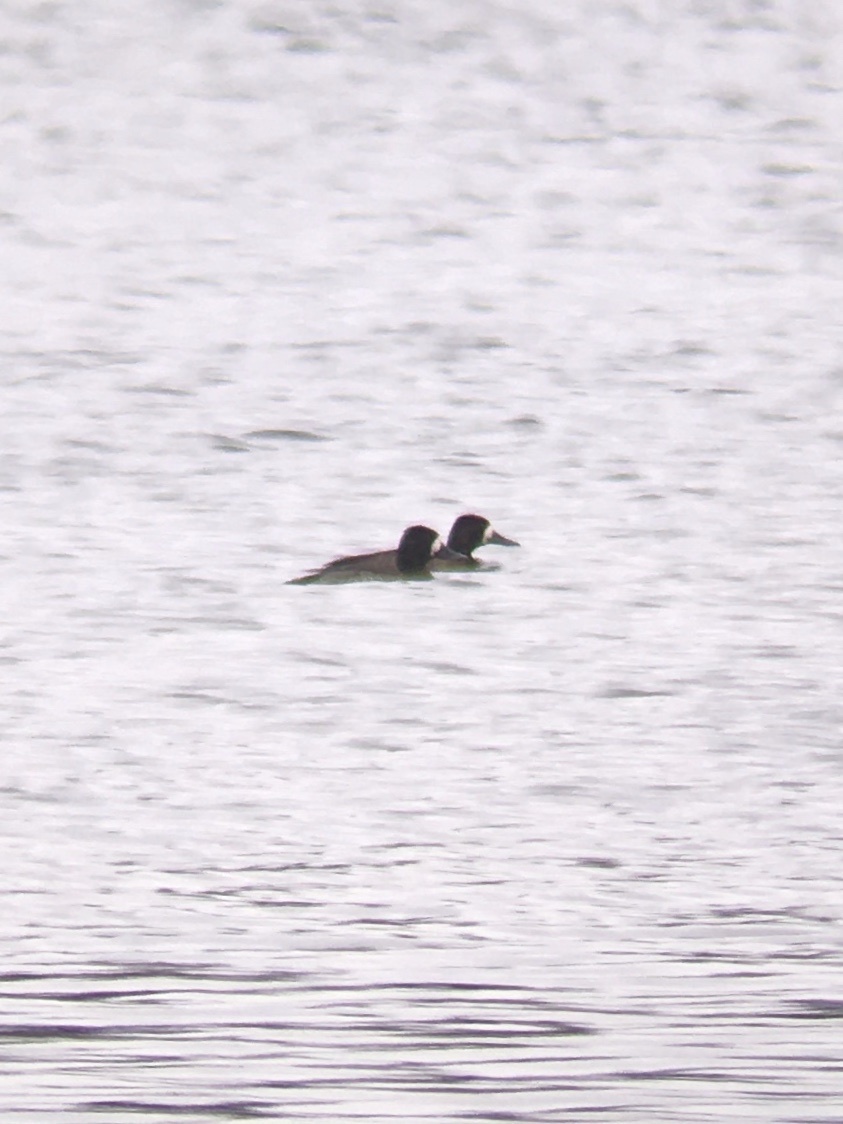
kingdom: Animalia
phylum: Chordata
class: Aves
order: Anseriformes
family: Anatidae
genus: Aythya
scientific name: Aythya affinis
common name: Lesser scaup
